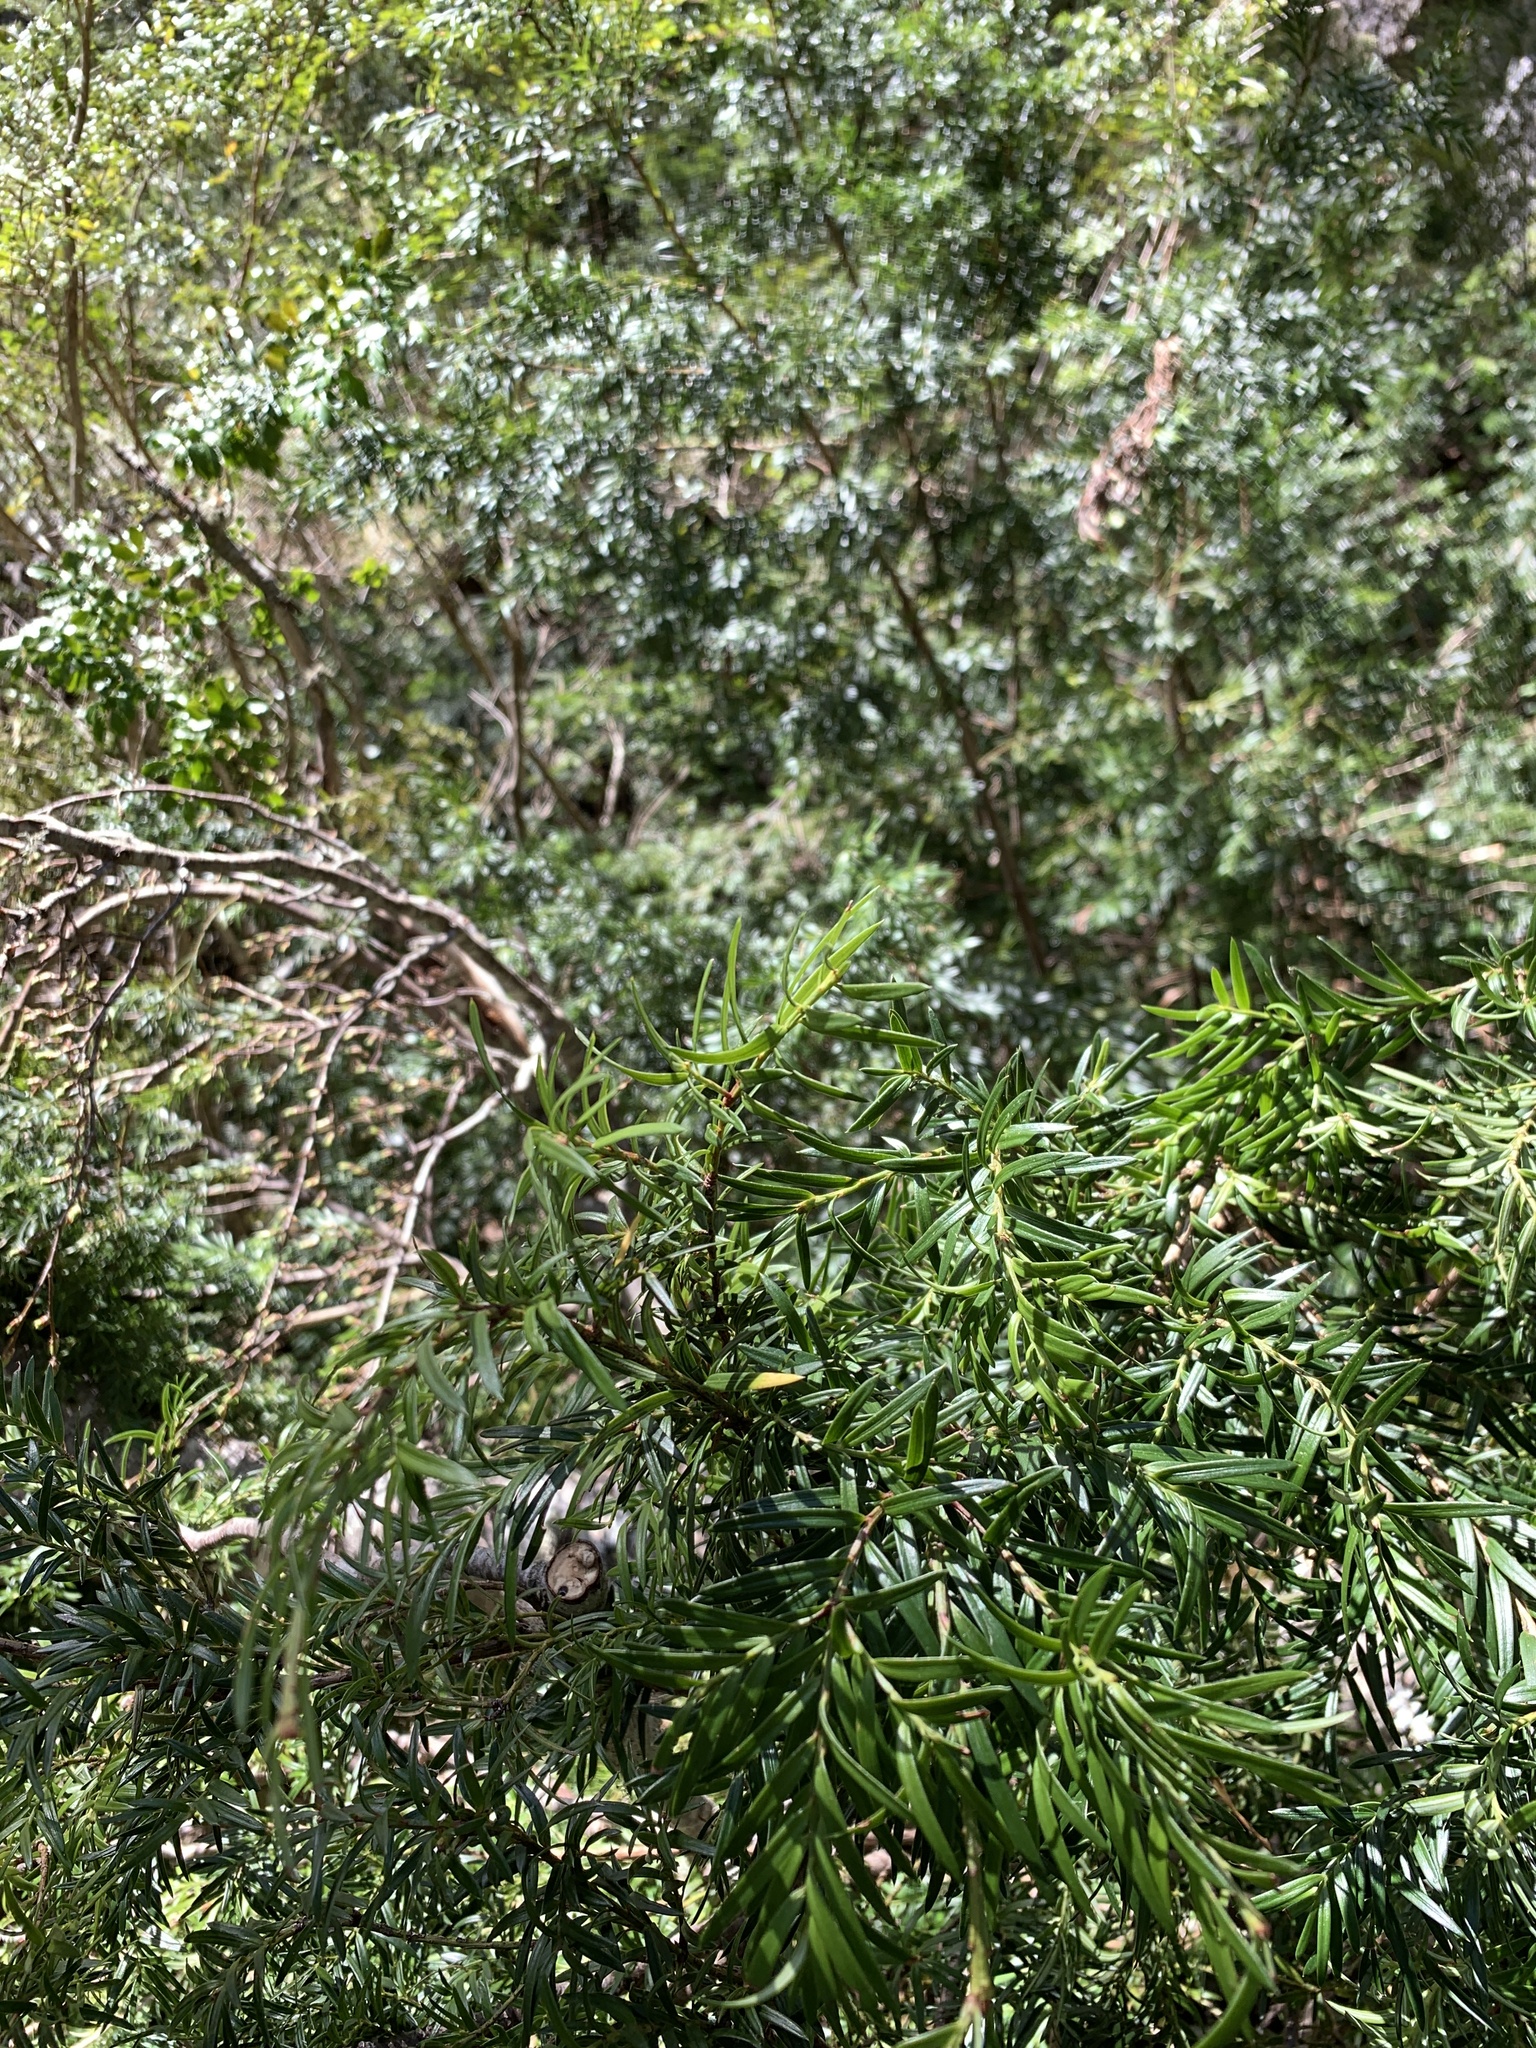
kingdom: Plantae
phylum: Tracheophyta
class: Pinopsida
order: Pinales
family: Podocarpaceae
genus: Saxegothaea
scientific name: Saxegothaea conspicua
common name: Prince albert's yew
